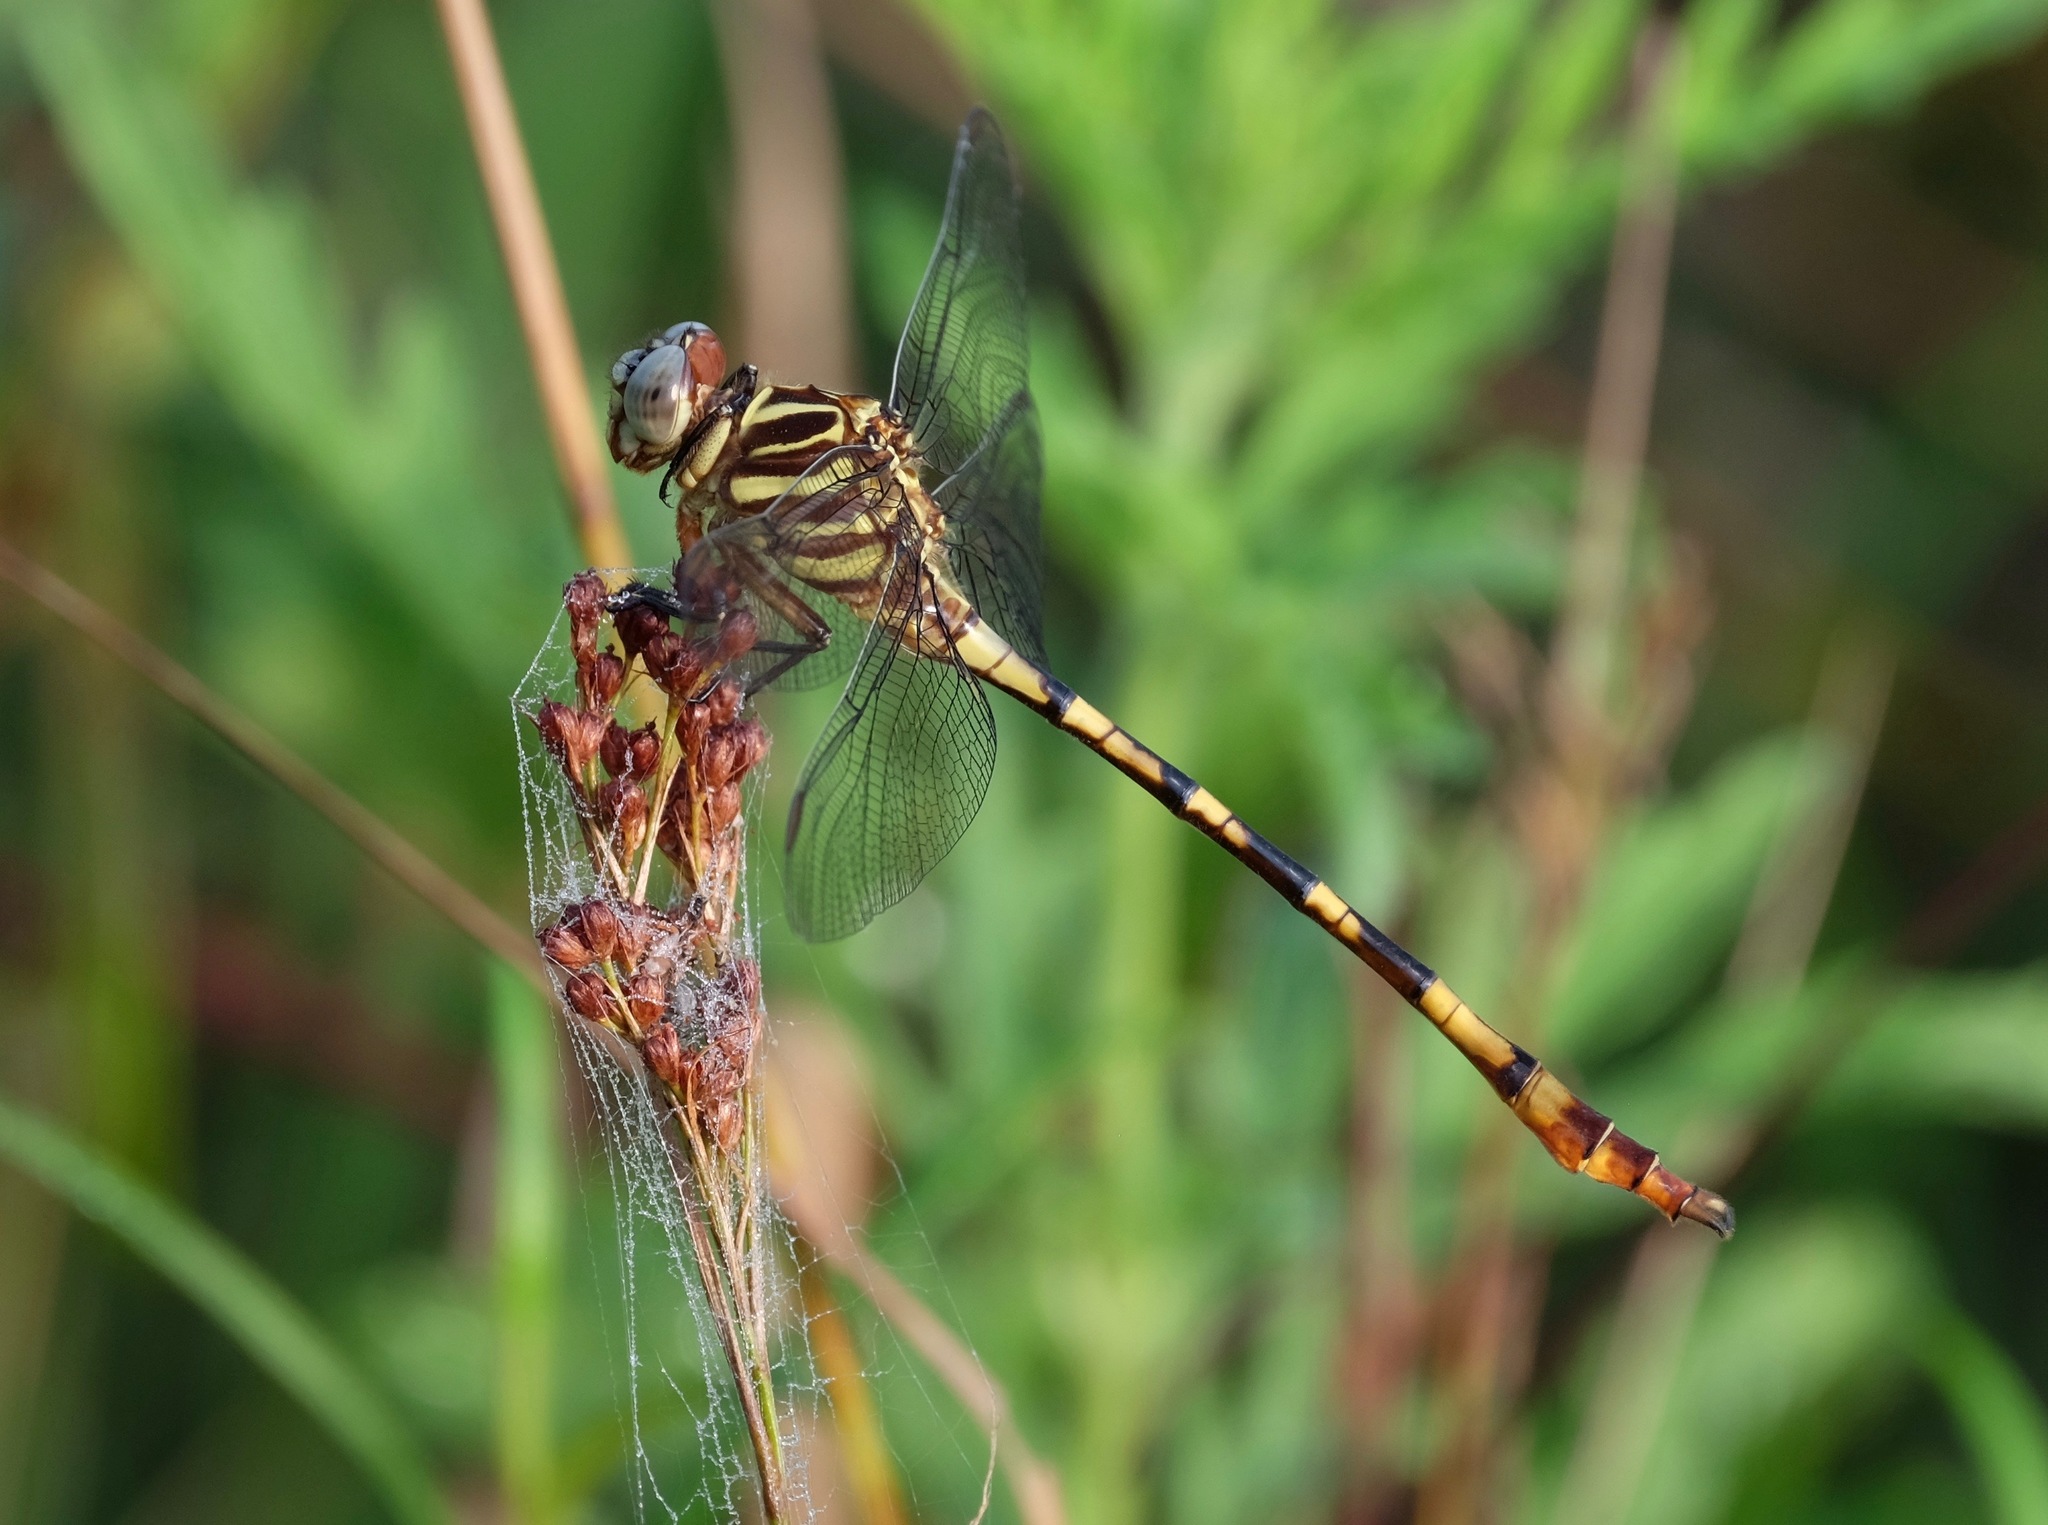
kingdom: Animalia
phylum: Arthropoda
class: Insecta
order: Odonata
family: Gomphidae
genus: Aphylla
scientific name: Aphylla angustifolia
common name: Broad-striped forceptail
